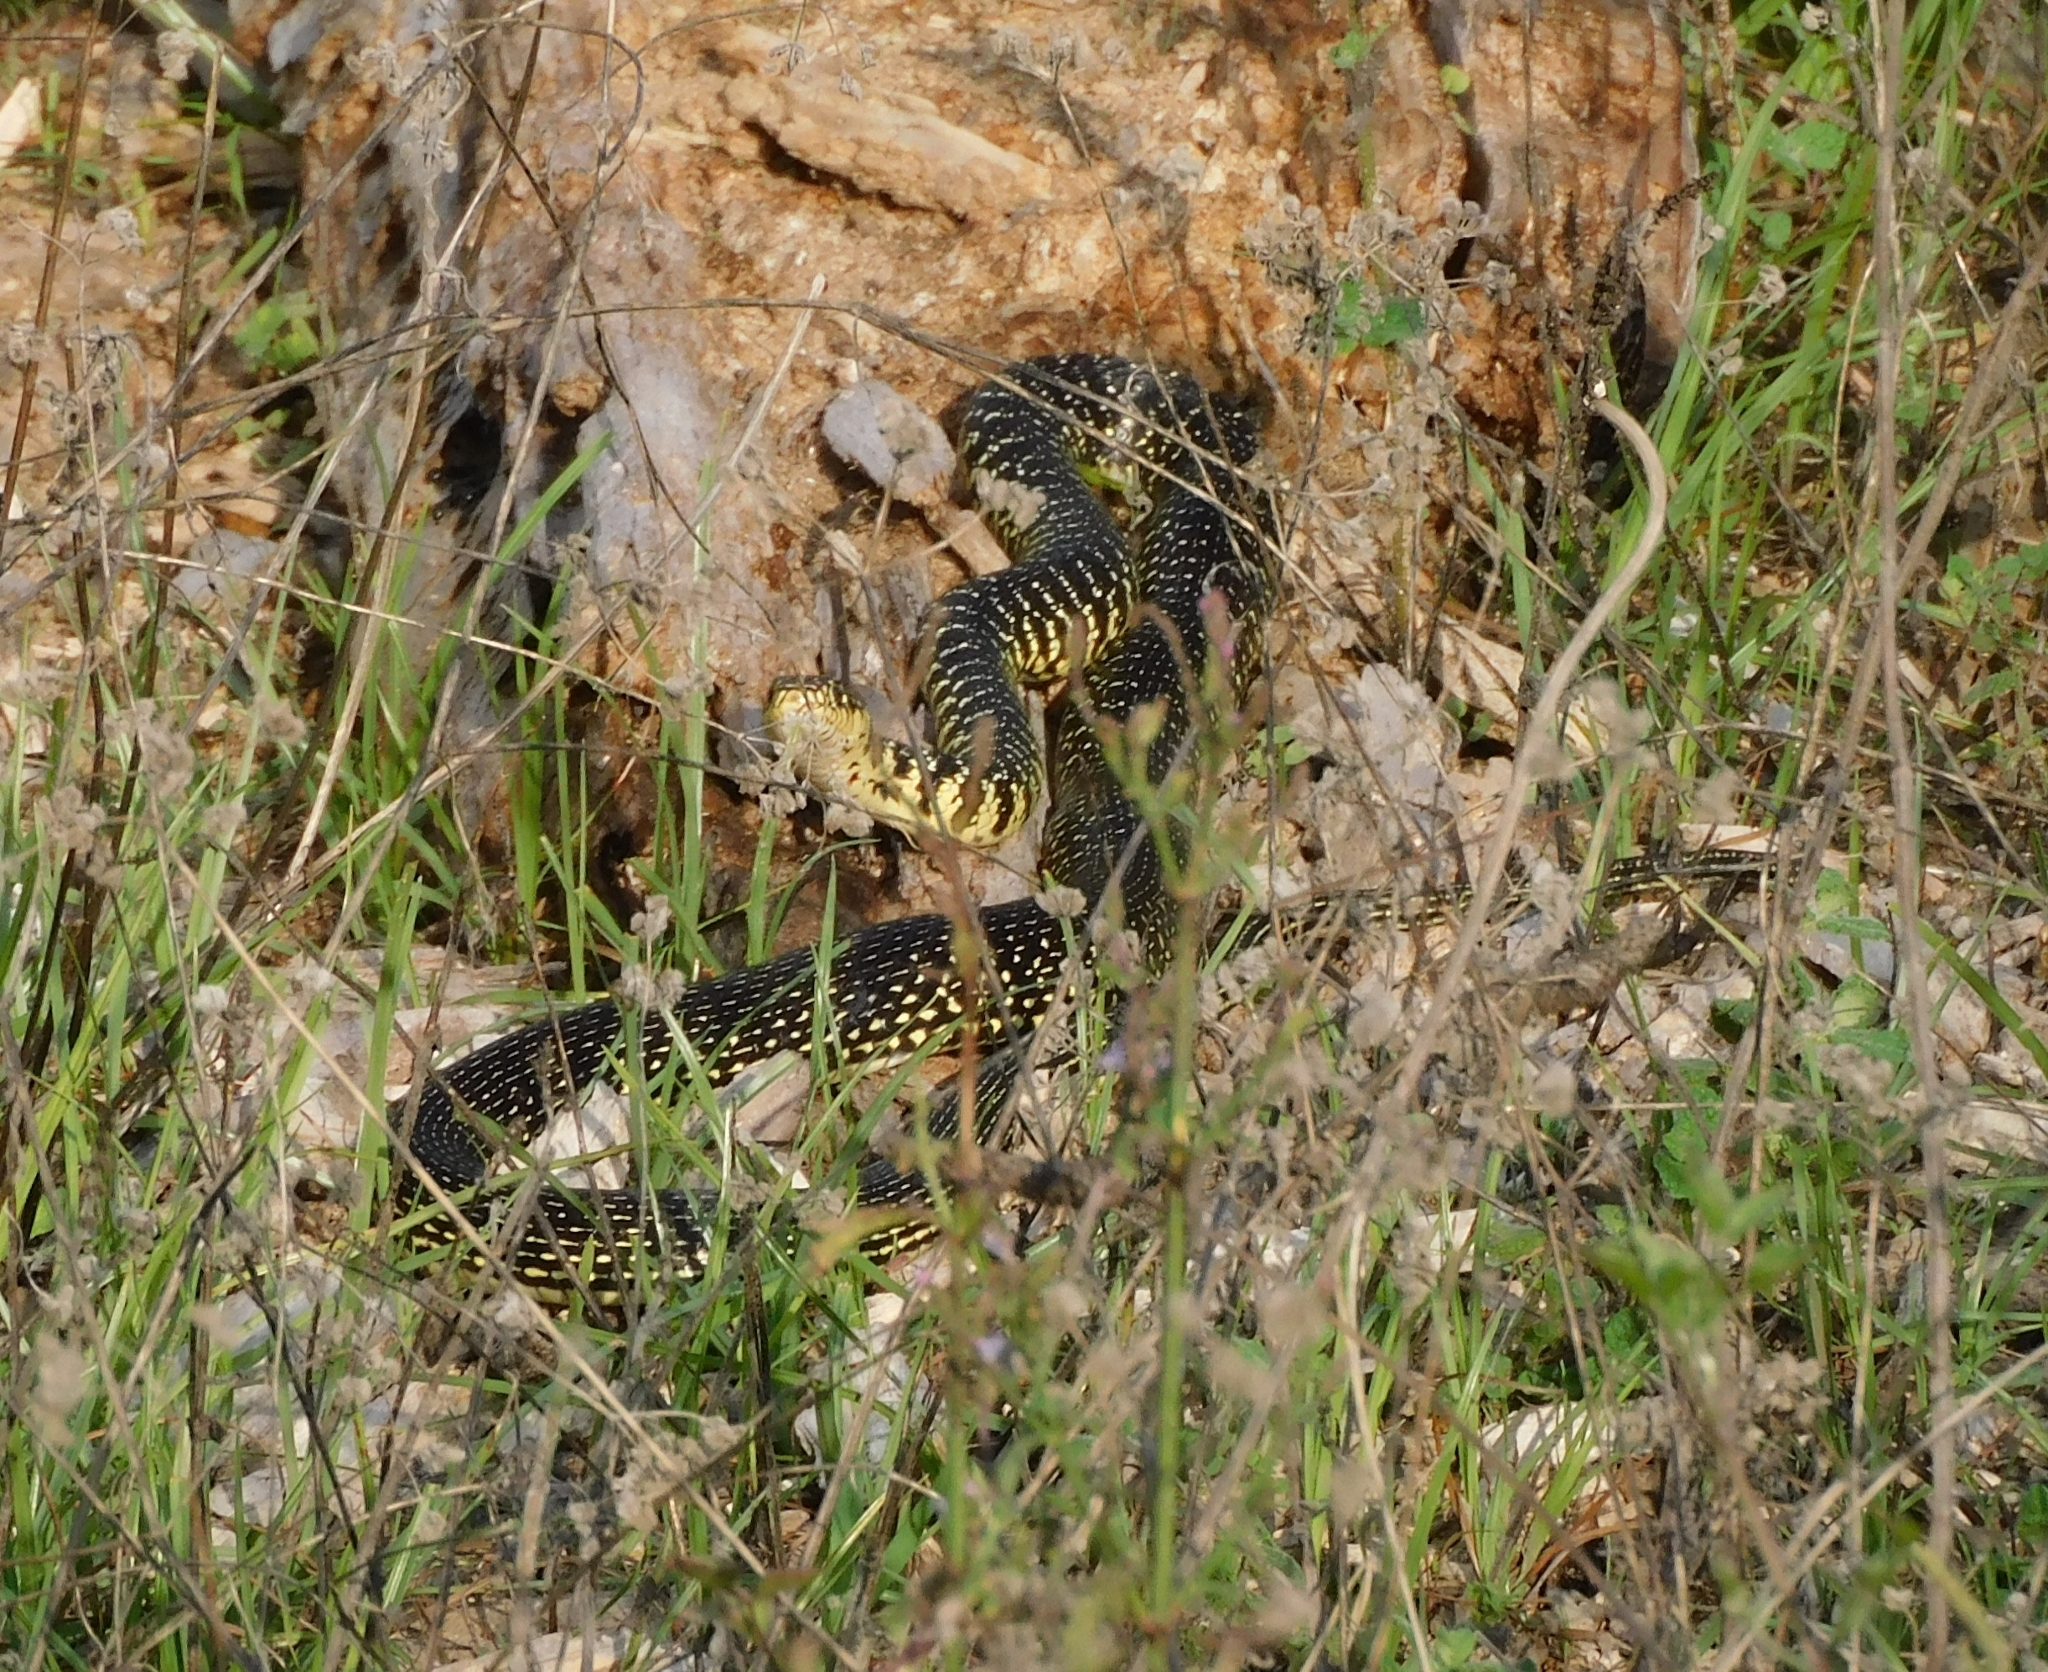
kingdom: Animalia
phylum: Chordata
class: Squamata
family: Colubridae
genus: Hierophis
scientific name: Hierophis viridiflavus
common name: Green whip snake
